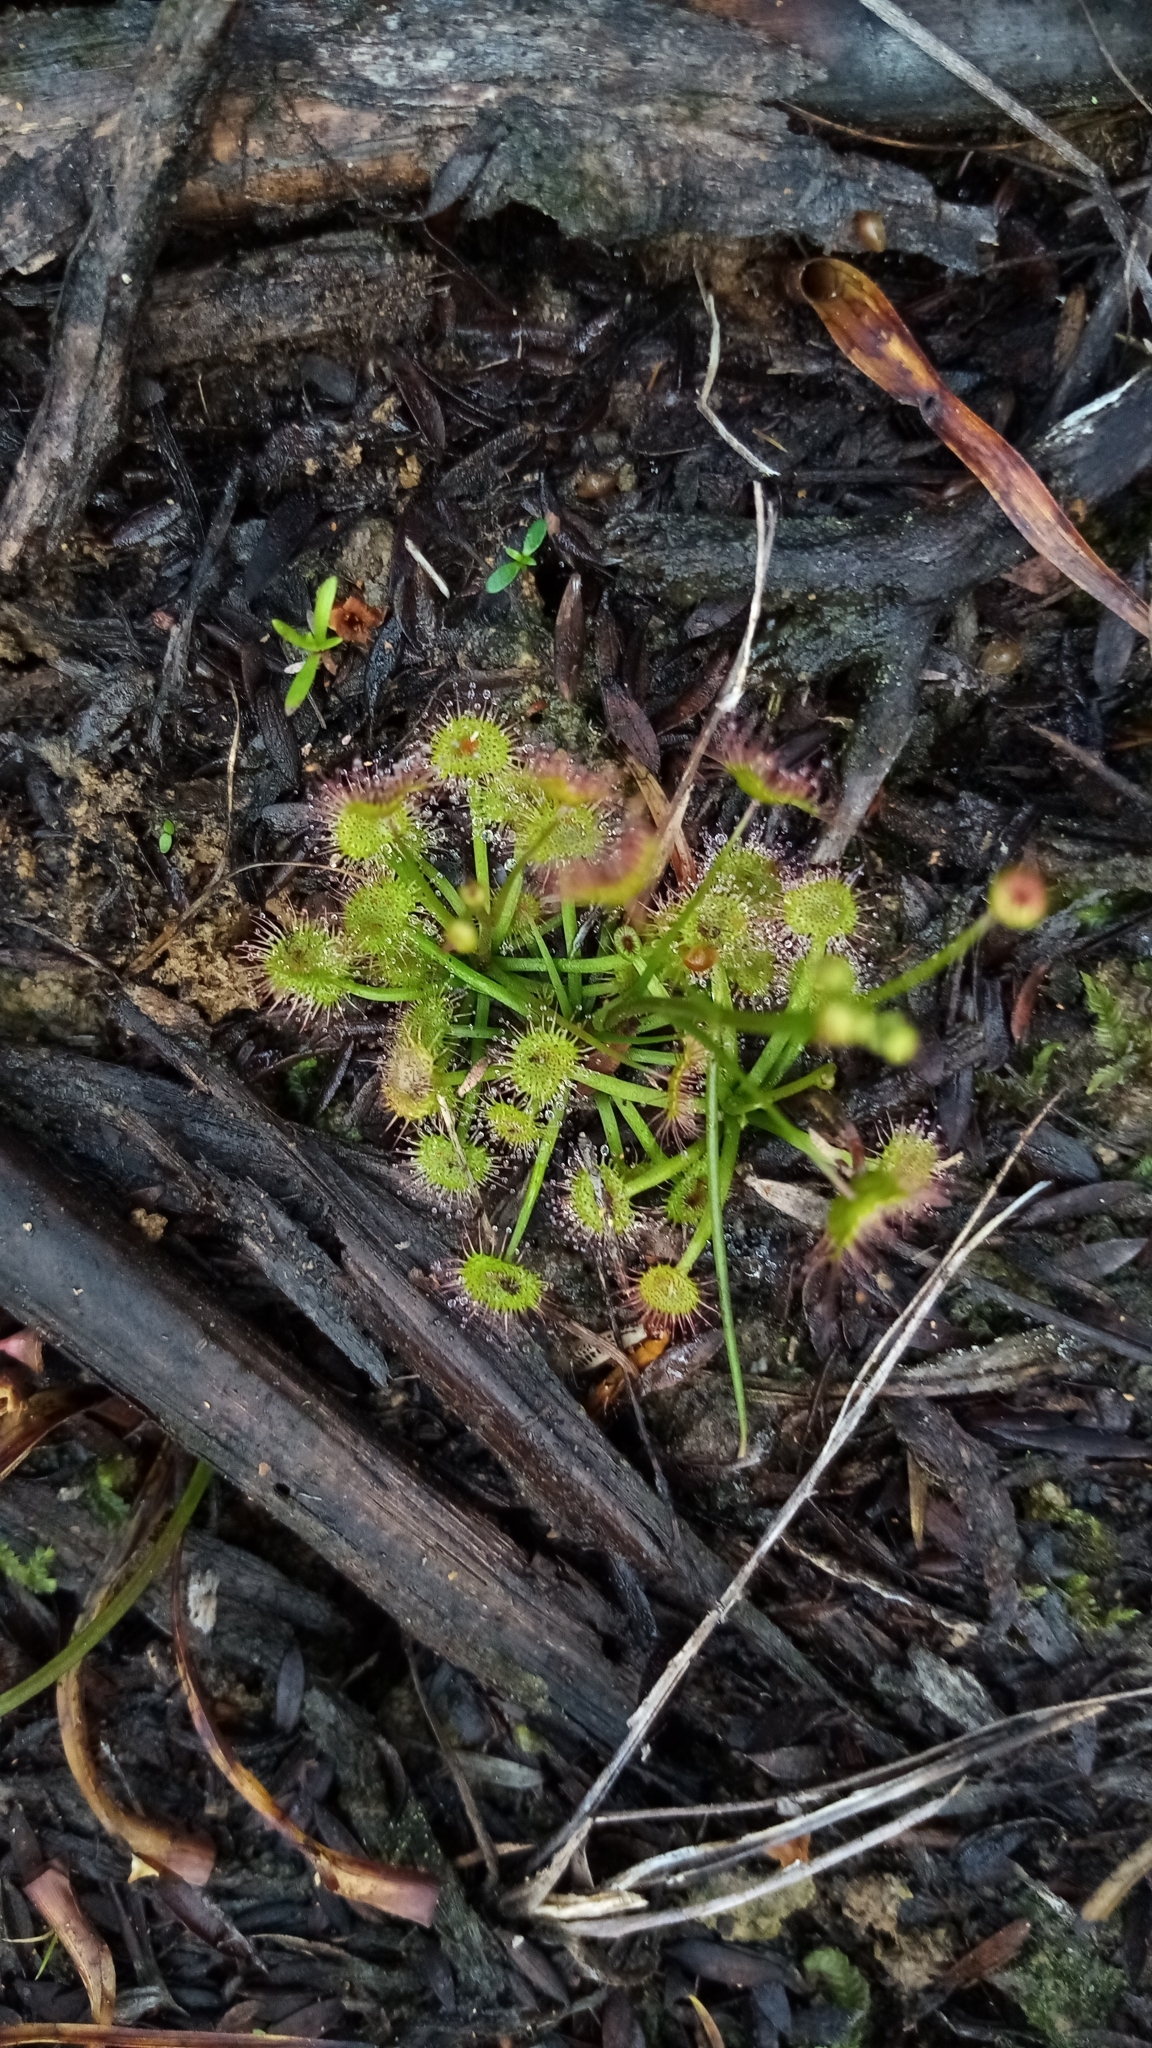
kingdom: Plantae
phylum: Tracheophyta
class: Magnoliopsida
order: Caryophyllales
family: Droseraceae
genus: Drosera
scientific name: Drosera peltata
